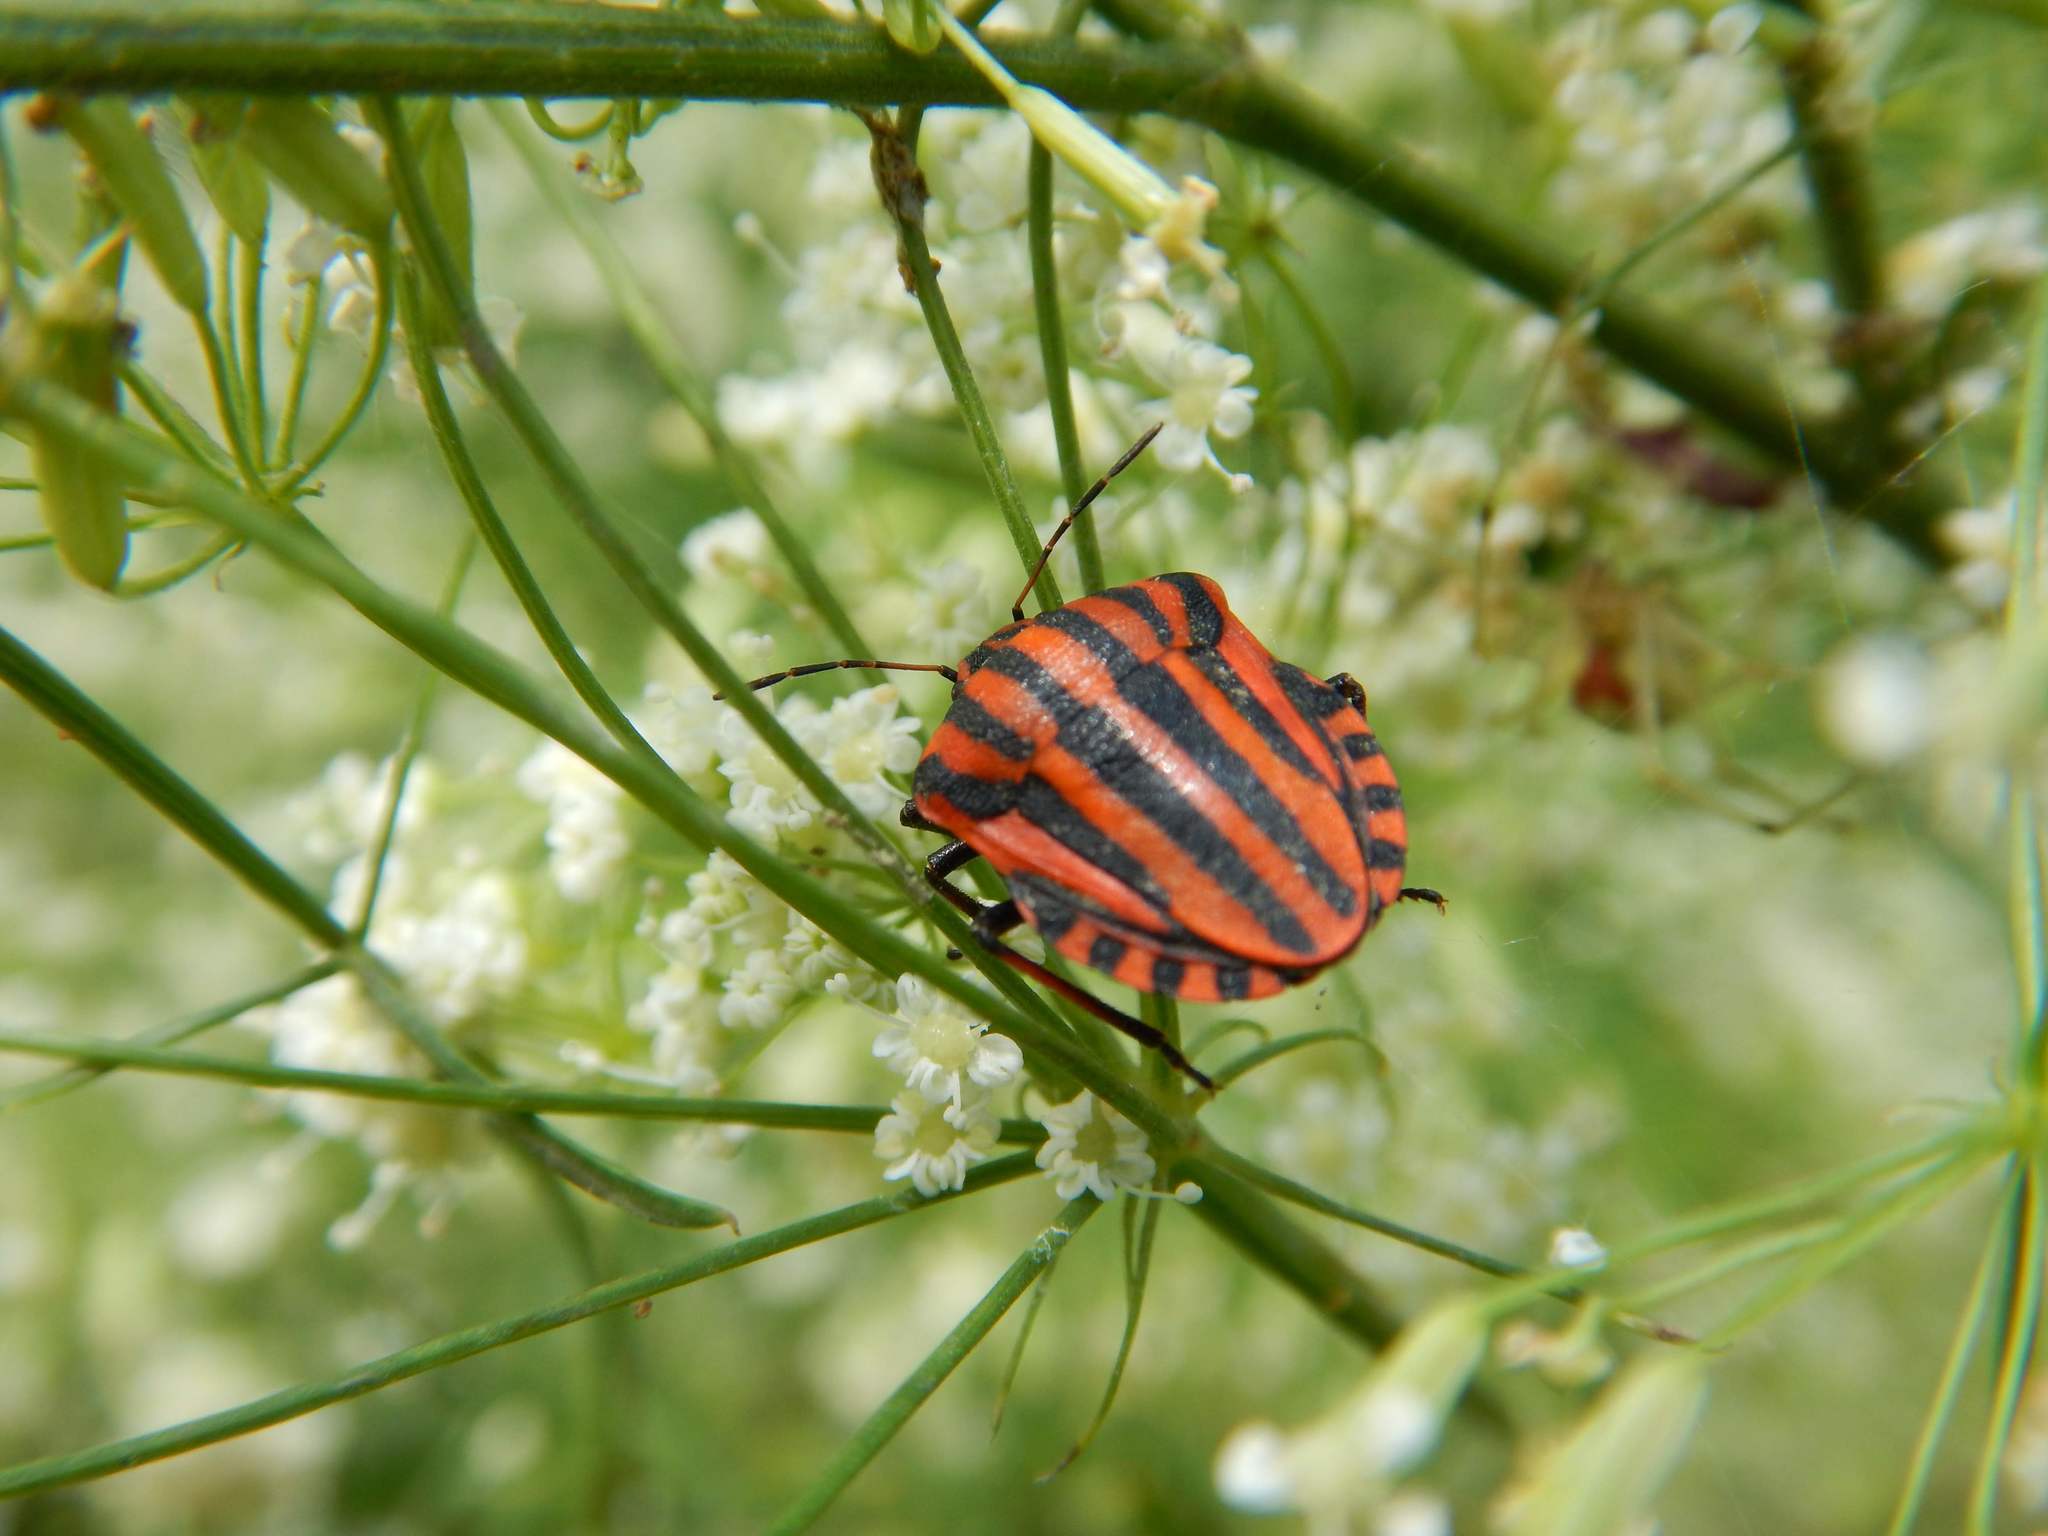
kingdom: Animalia
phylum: Arthropoda
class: Insecta
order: Hemiptera
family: Pentatomidae
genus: Graphosoma
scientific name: Graphosoma italicum
